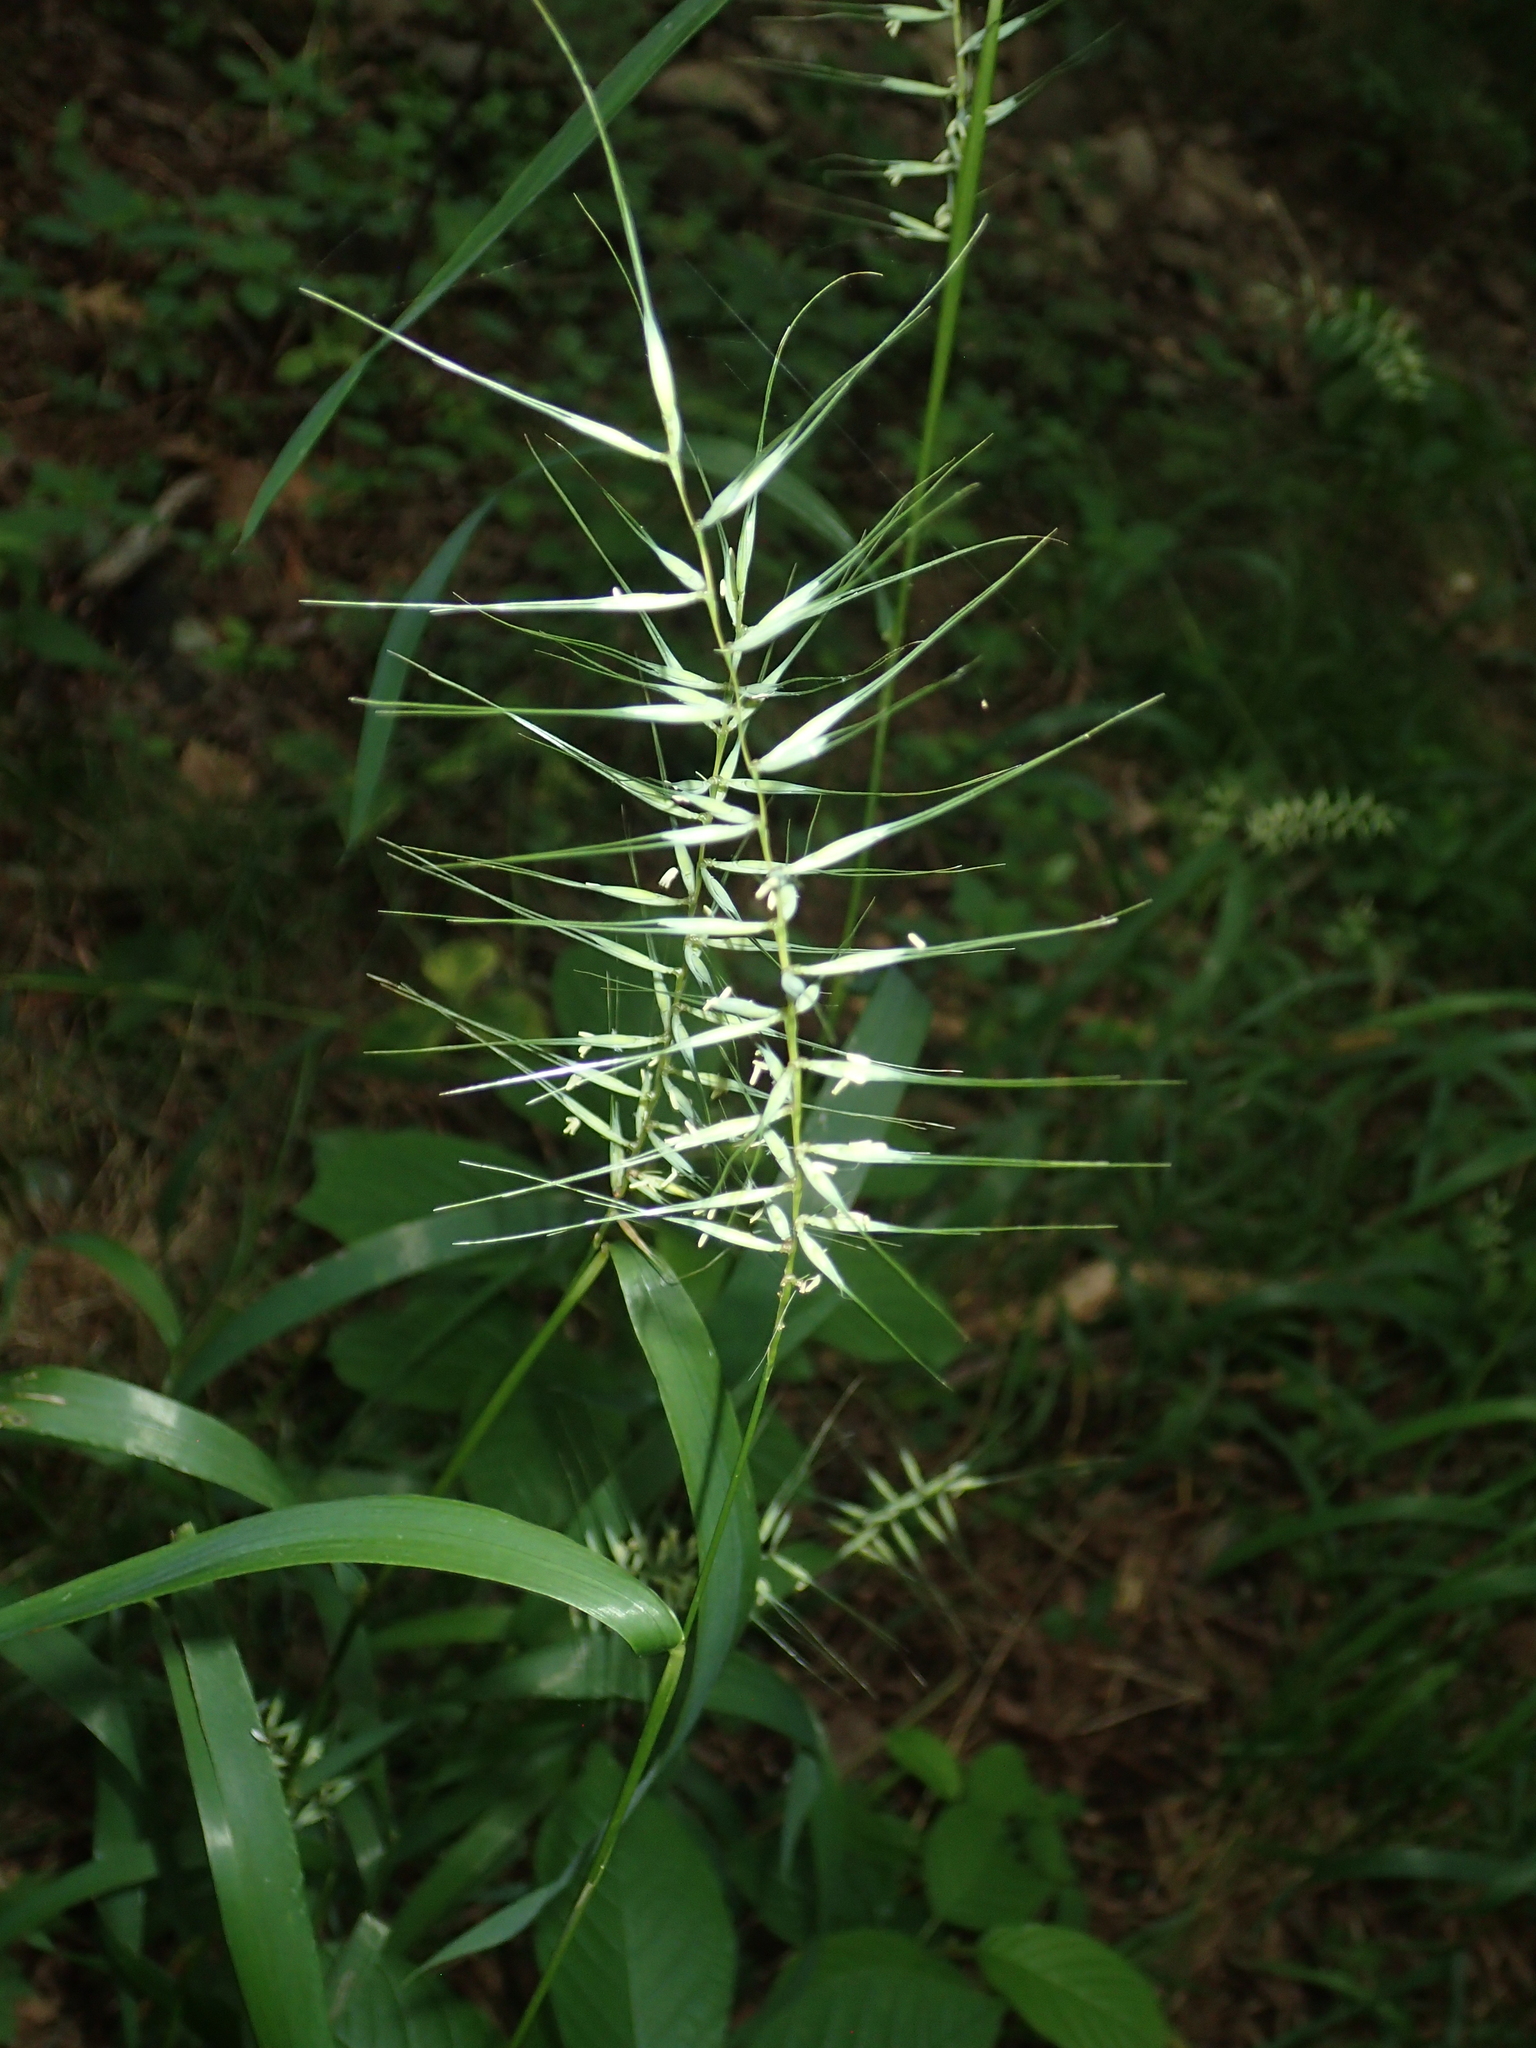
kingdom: Plantae
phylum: Tracheophyta
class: Liliopsida
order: Poales
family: Poaceae
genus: Elymus
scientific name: Elymus hystrix
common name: Bottlebrush grass
